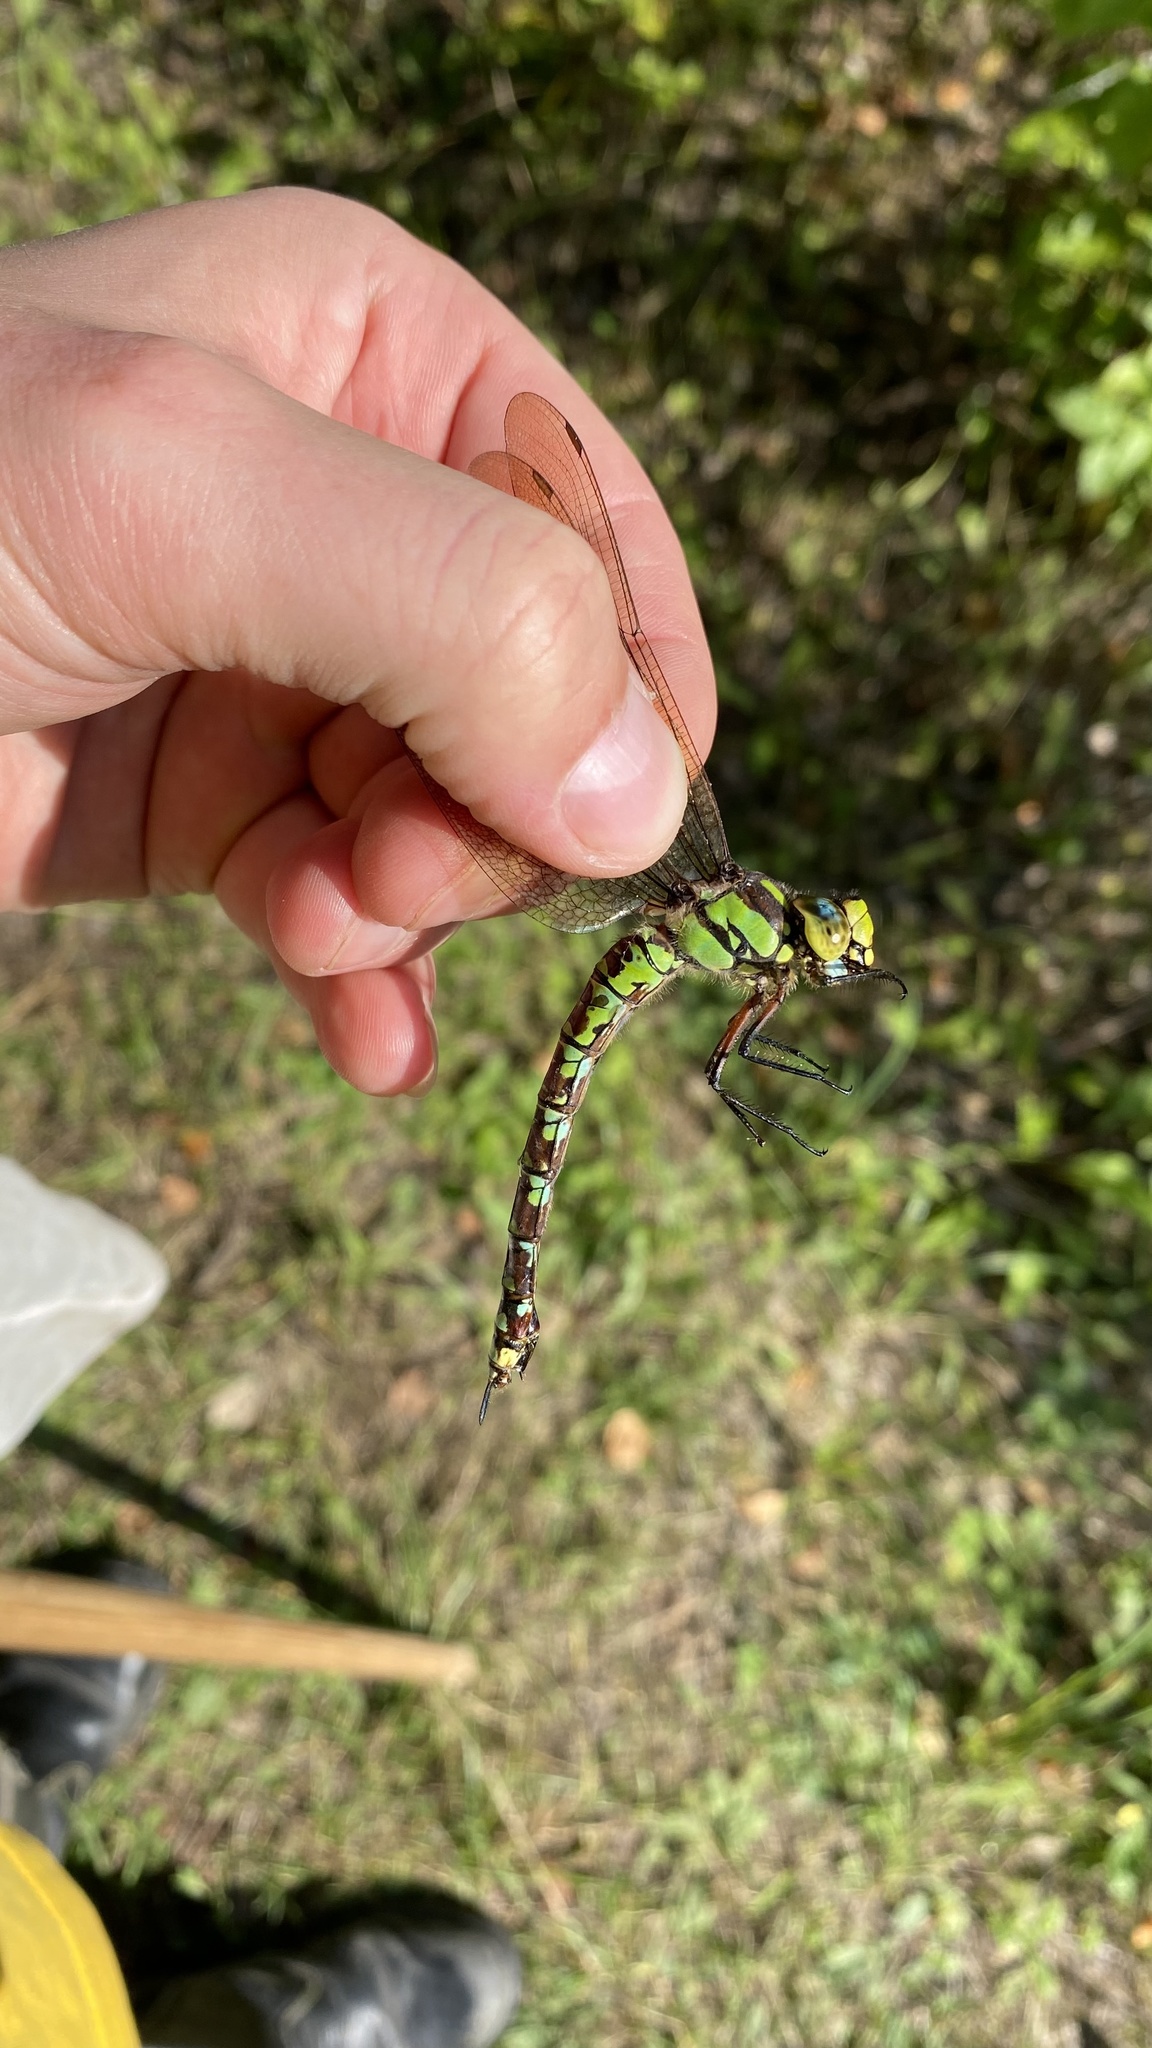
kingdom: Animalia
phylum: Arthropoda
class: Insecta
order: Odonata
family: Aeshnidae
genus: Aeshna
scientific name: Aeshna cyanea
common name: Southern hawker
